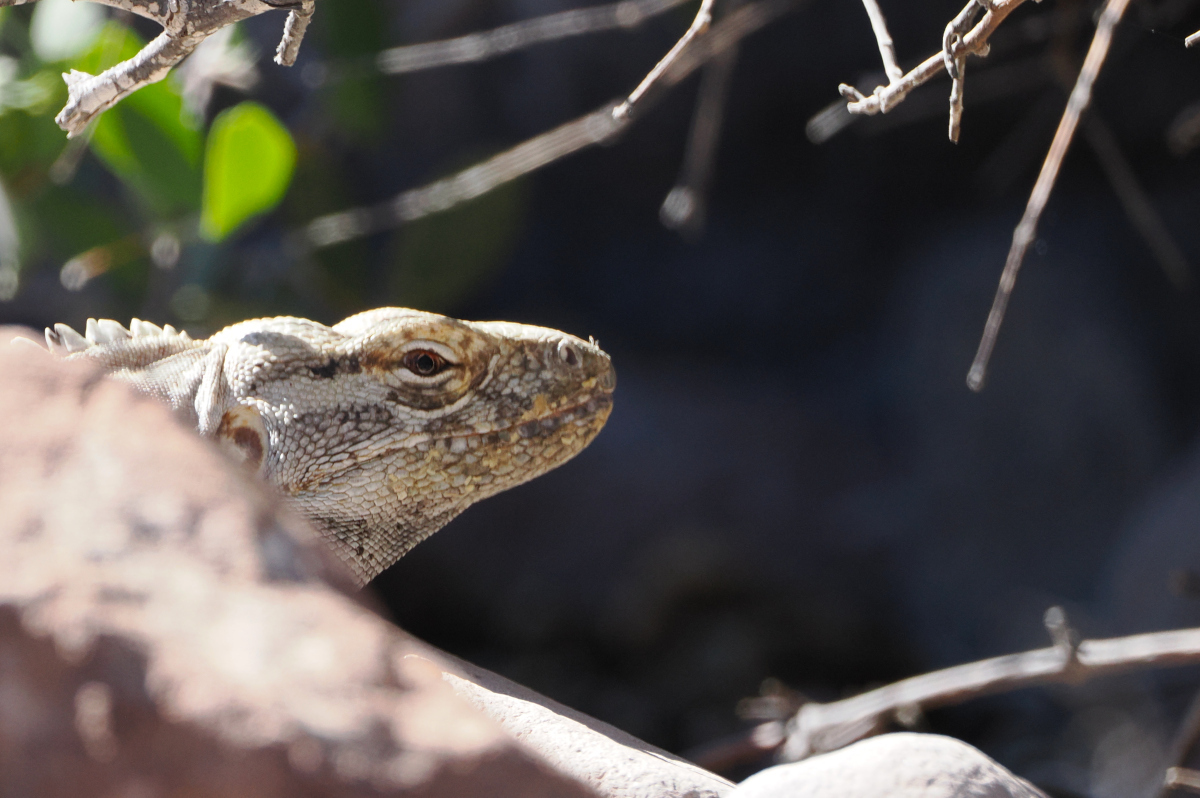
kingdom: Animalia
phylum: Chordata
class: Squamata
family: Iguanidae
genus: Ctenosaura
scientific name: Ctenosaura conspicuosa
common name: San esteban spinytail iguana
